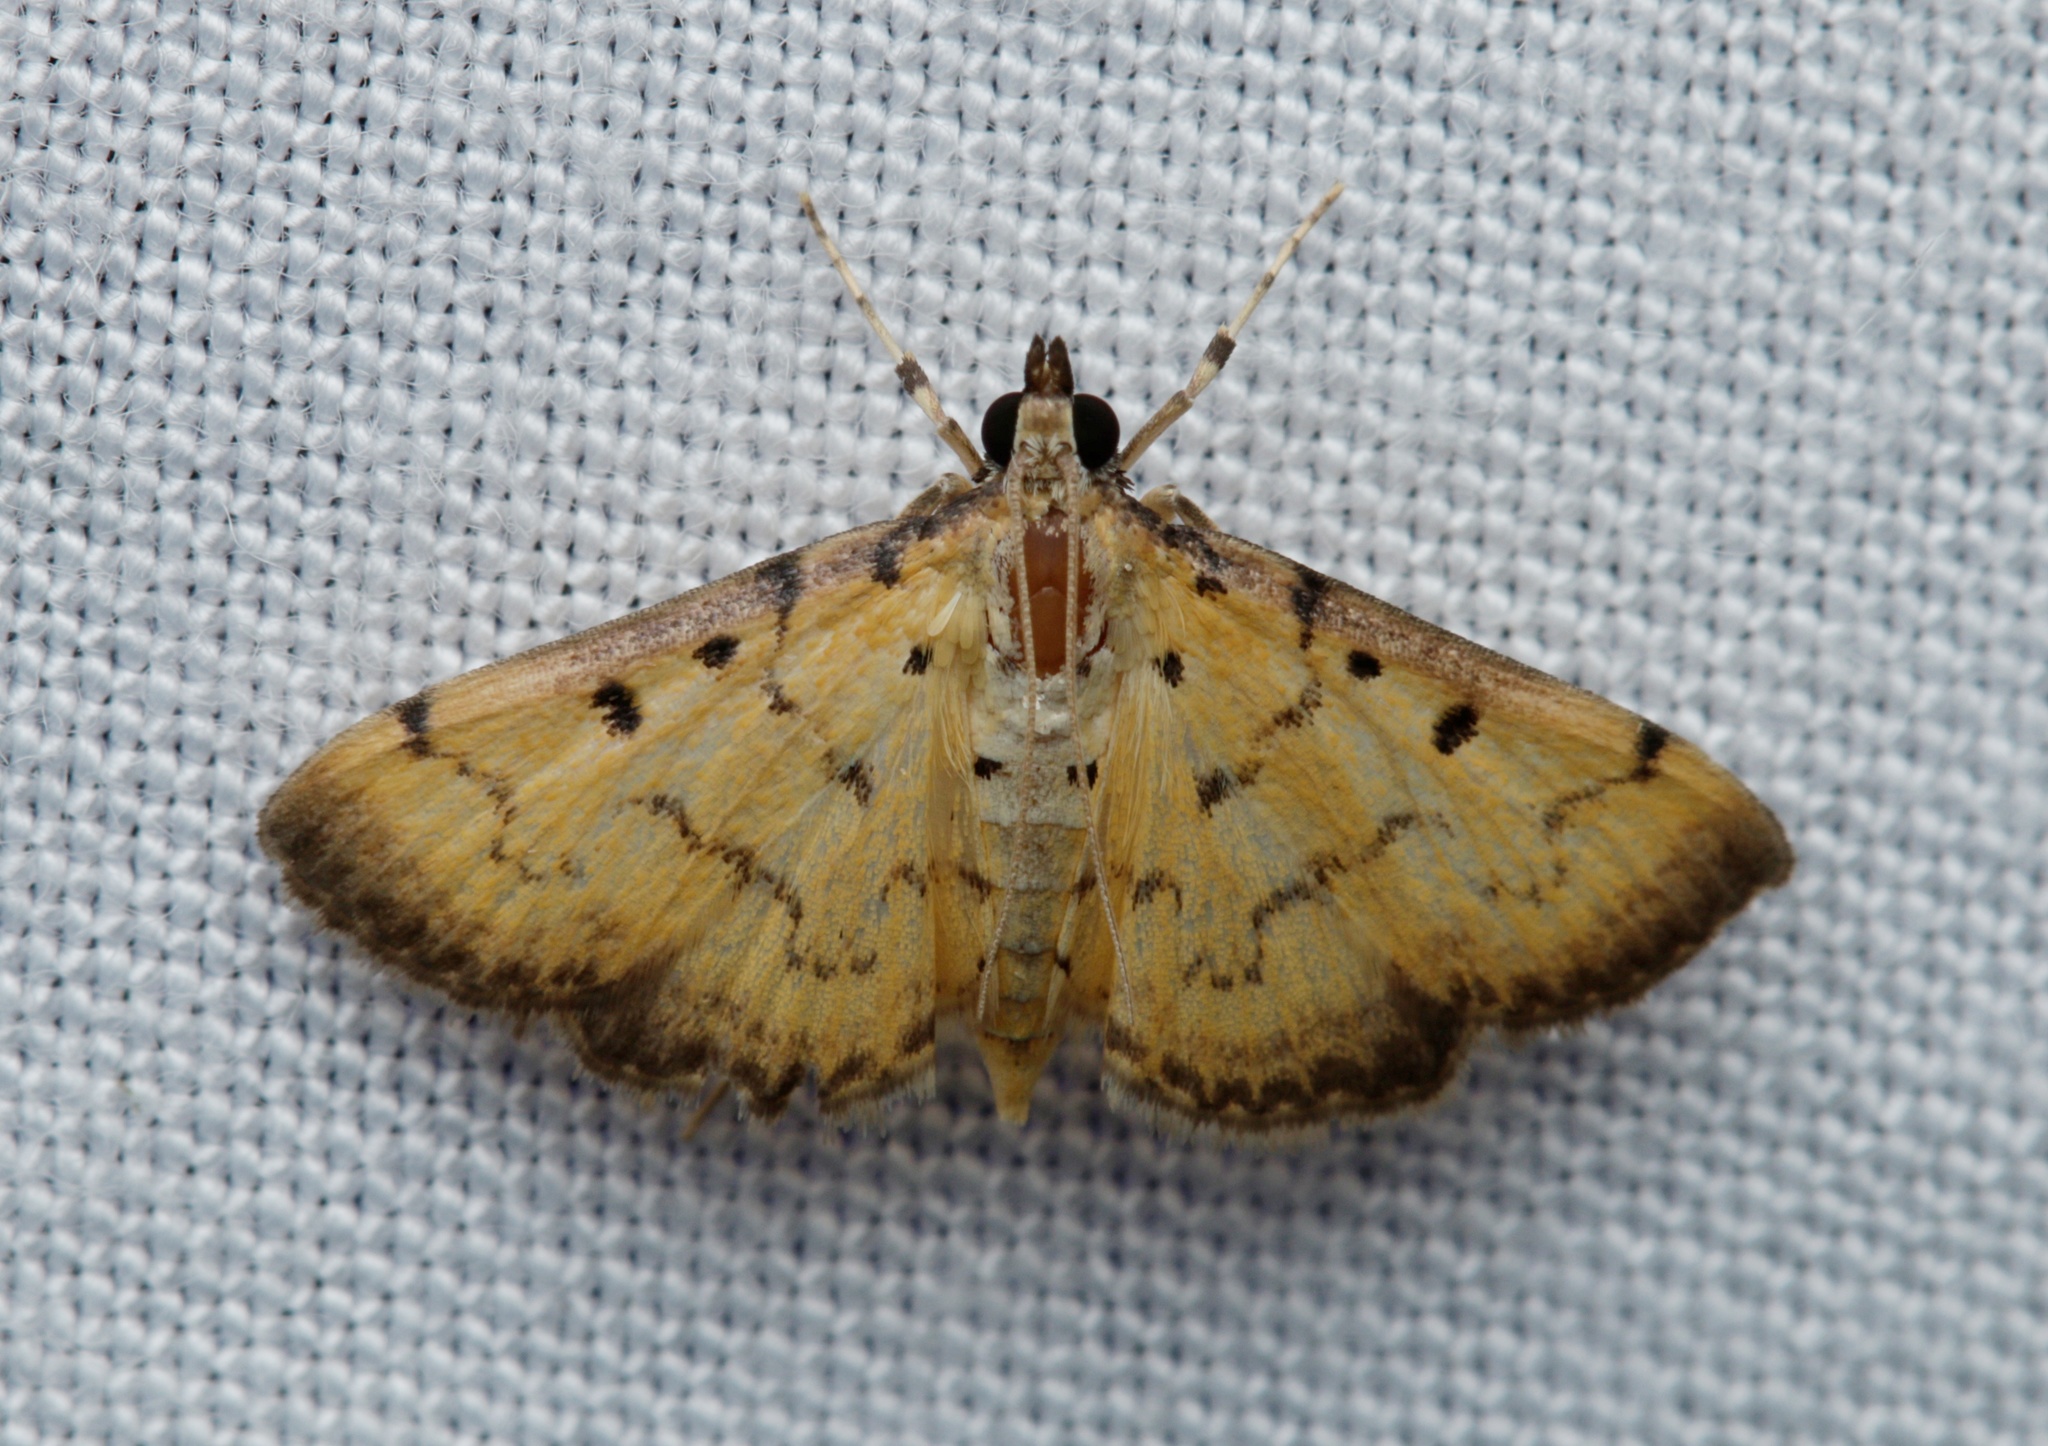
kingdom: Animalia
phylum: Arthropoda
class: Insecta
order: Lepidoptera
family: Crambidae
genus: Herpetogramma
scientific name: Herpetogramma hipponalis
